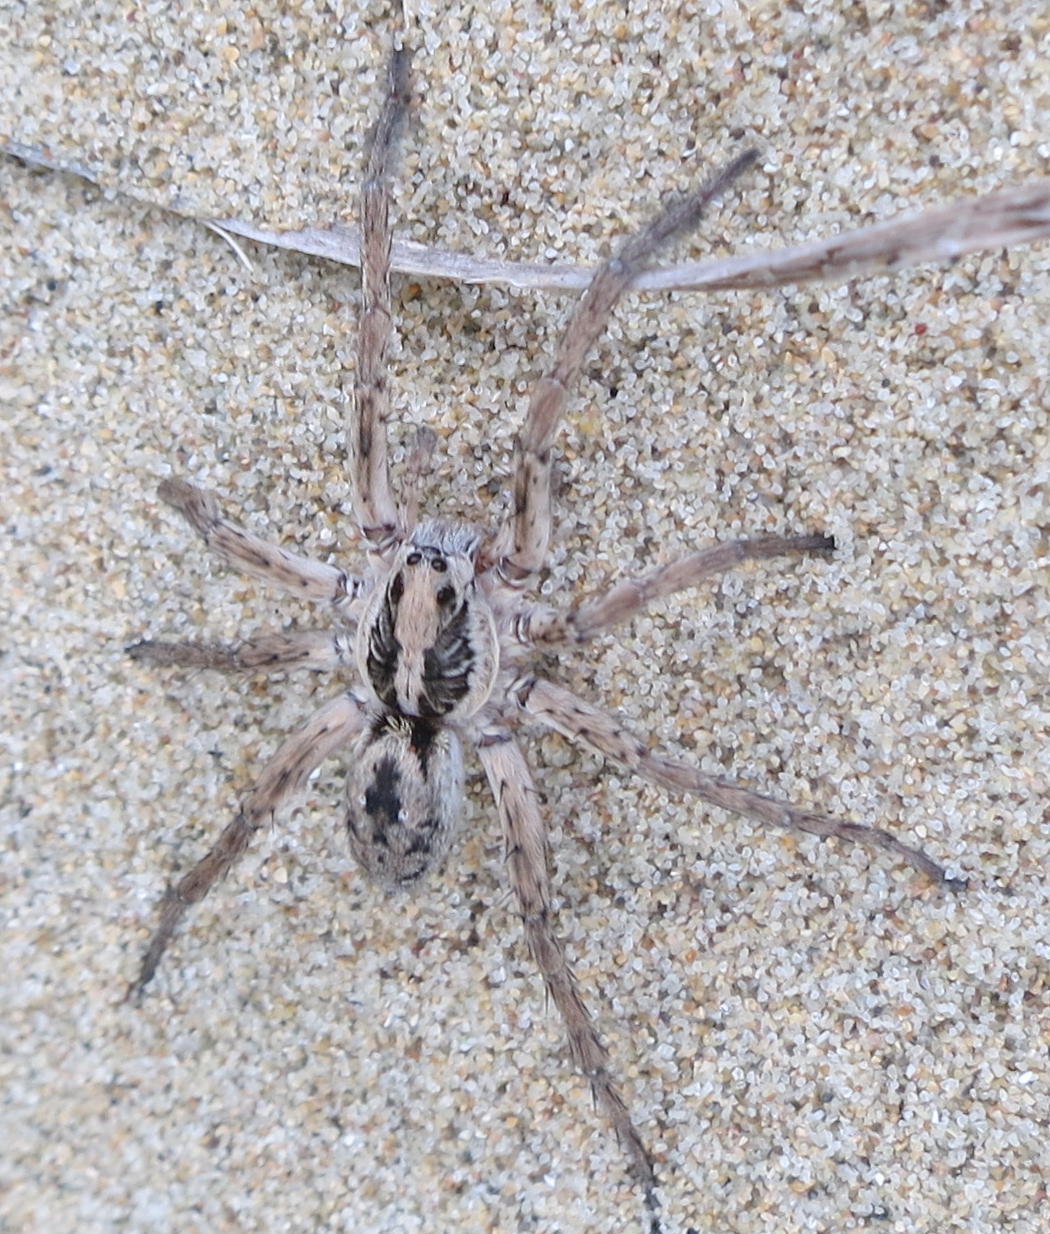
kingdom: Animalia
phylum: Arthropoda
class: Arachnida
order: Araneae
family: Lycosidae
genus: Hogna
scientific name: Hogna crispipes
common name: Wolf spider
